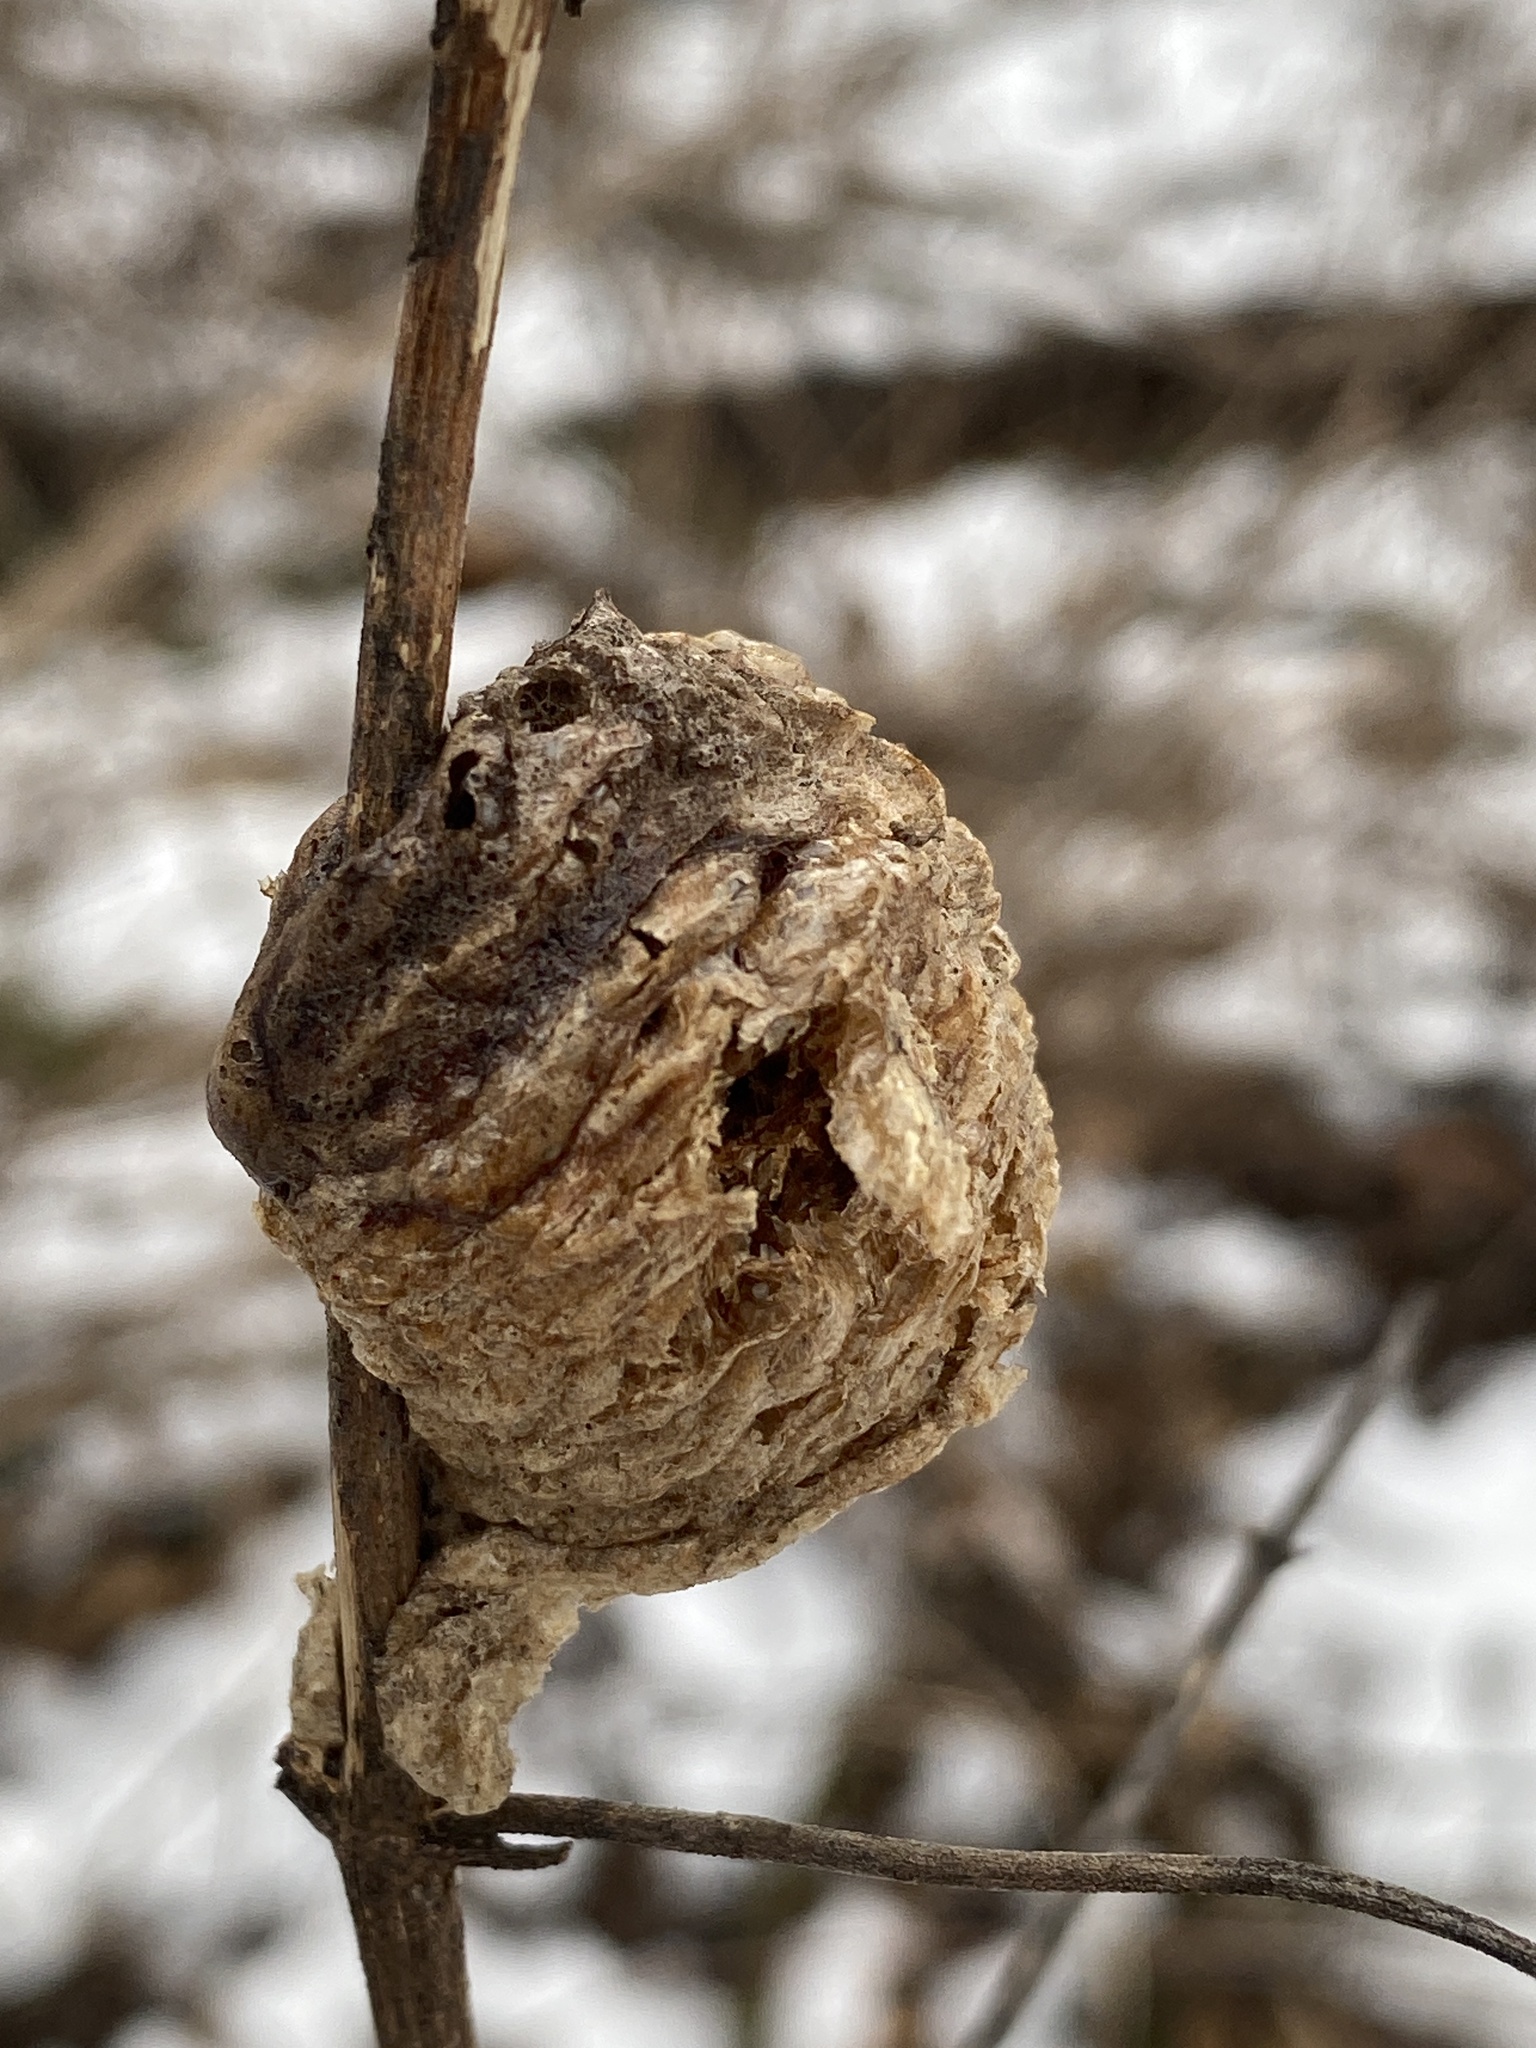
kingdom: Animalia
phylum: Arthropoda
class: Insecta
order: Mantodea
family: Mantidae
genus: Tenodera
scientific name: Tenodera sinensis
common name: Chinese mantis
